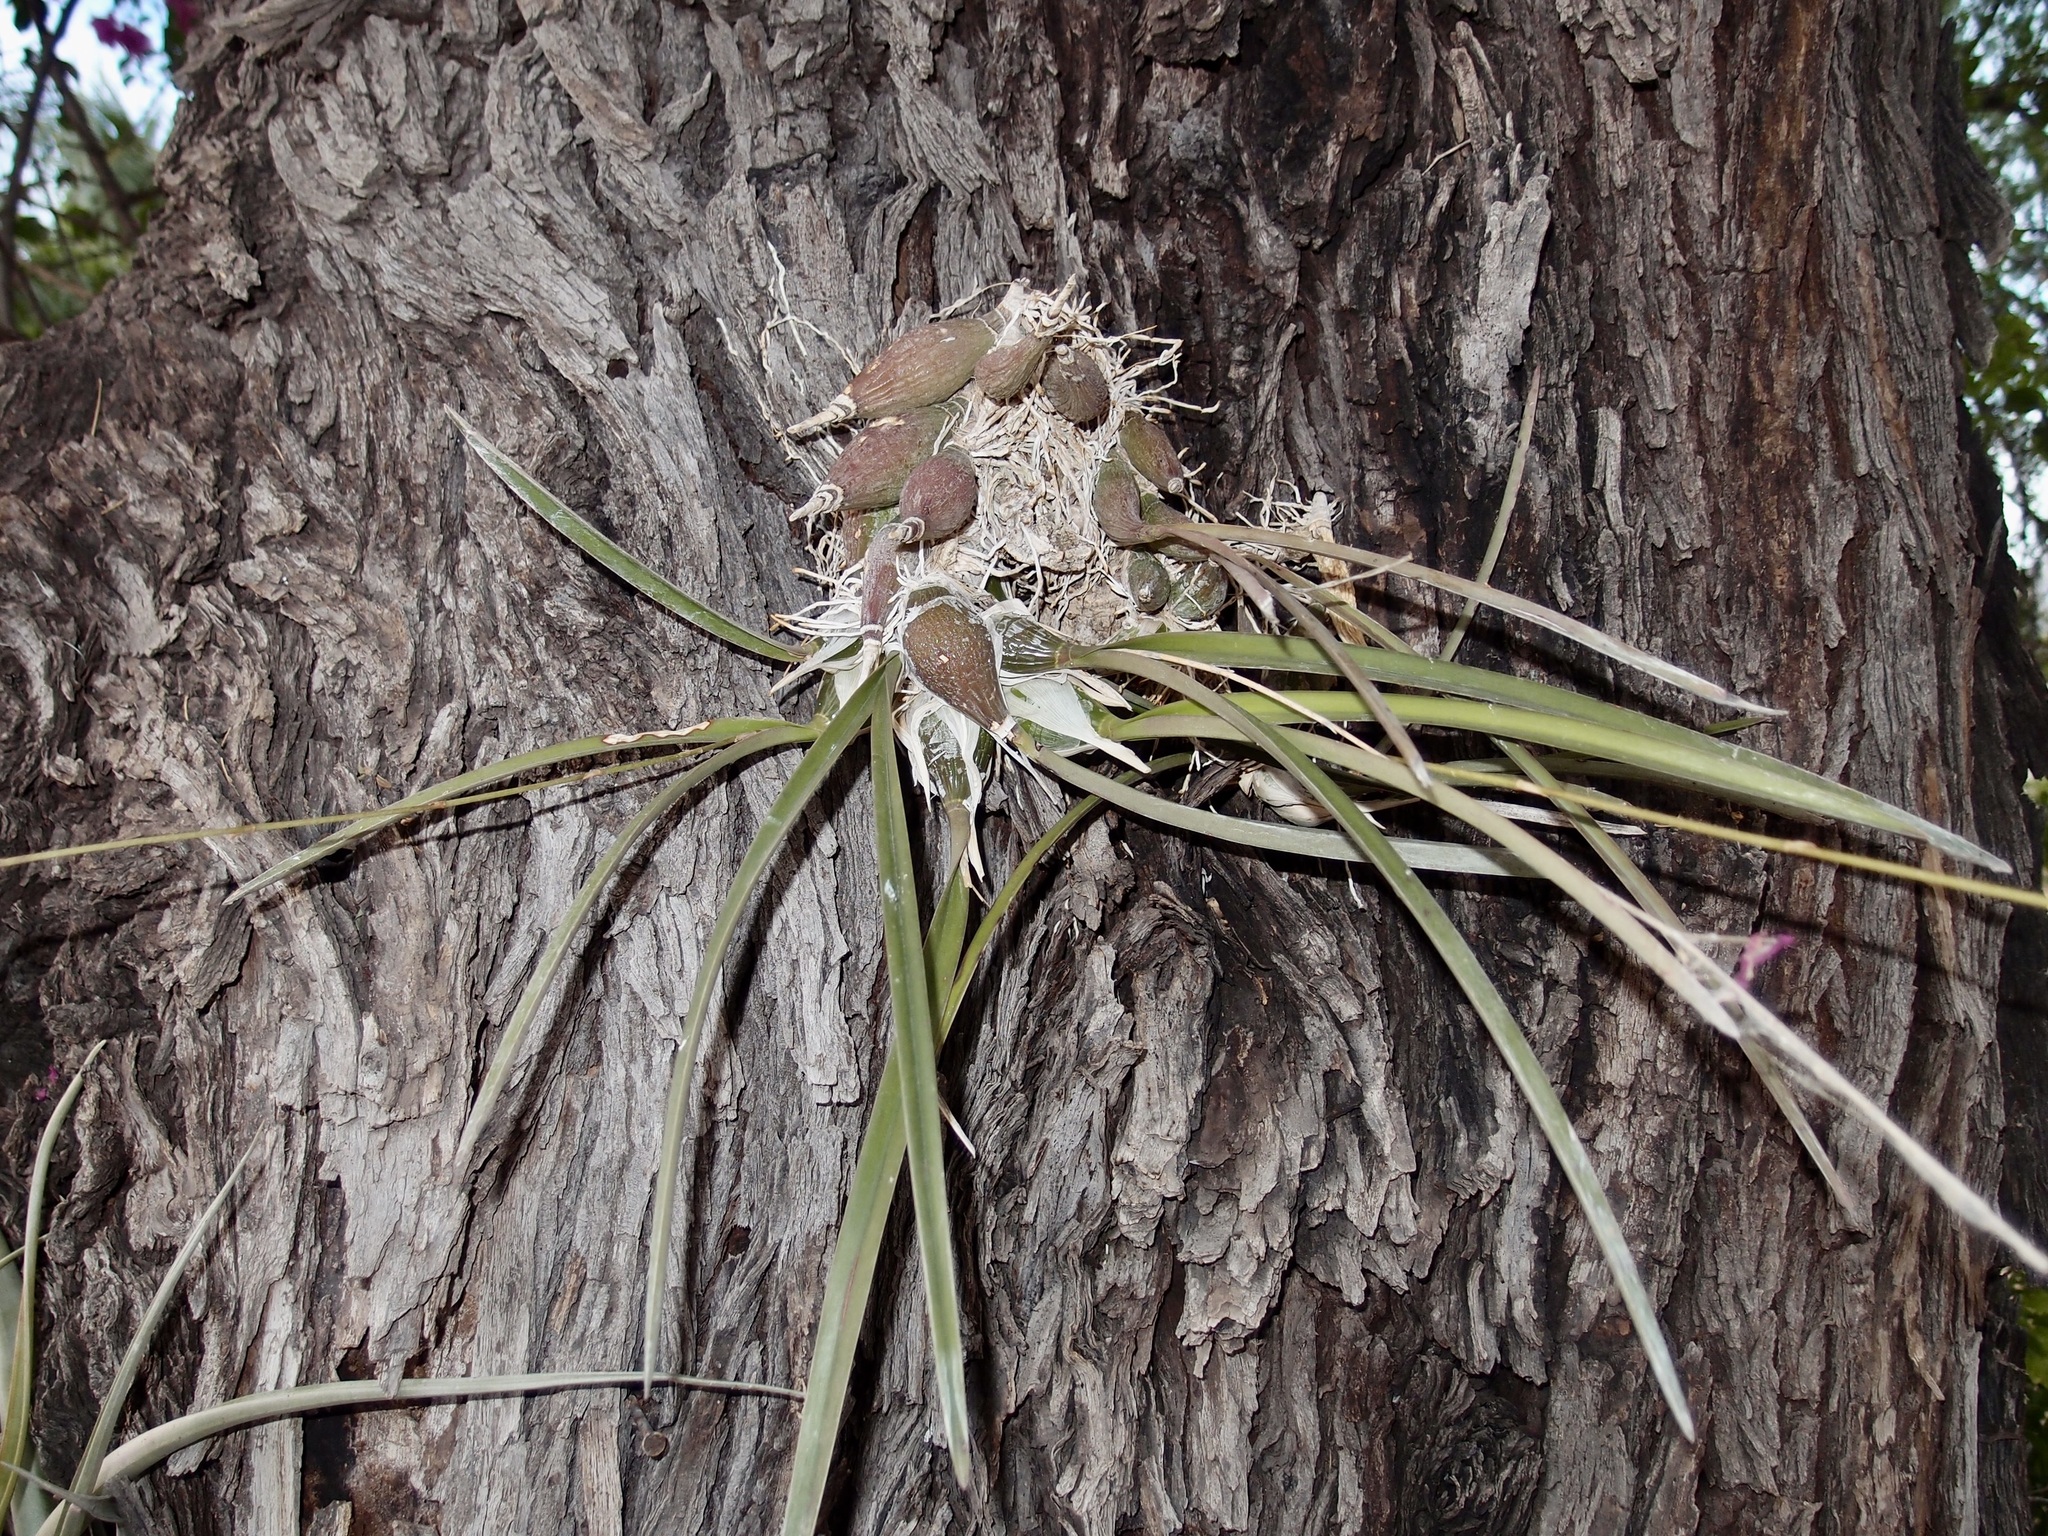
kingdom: Plantae
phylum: Tracheophyta
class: Liliopsida
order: Asparagales
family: Orchidaceae
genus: Encyclia
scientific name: Encyclia adenocarpos
